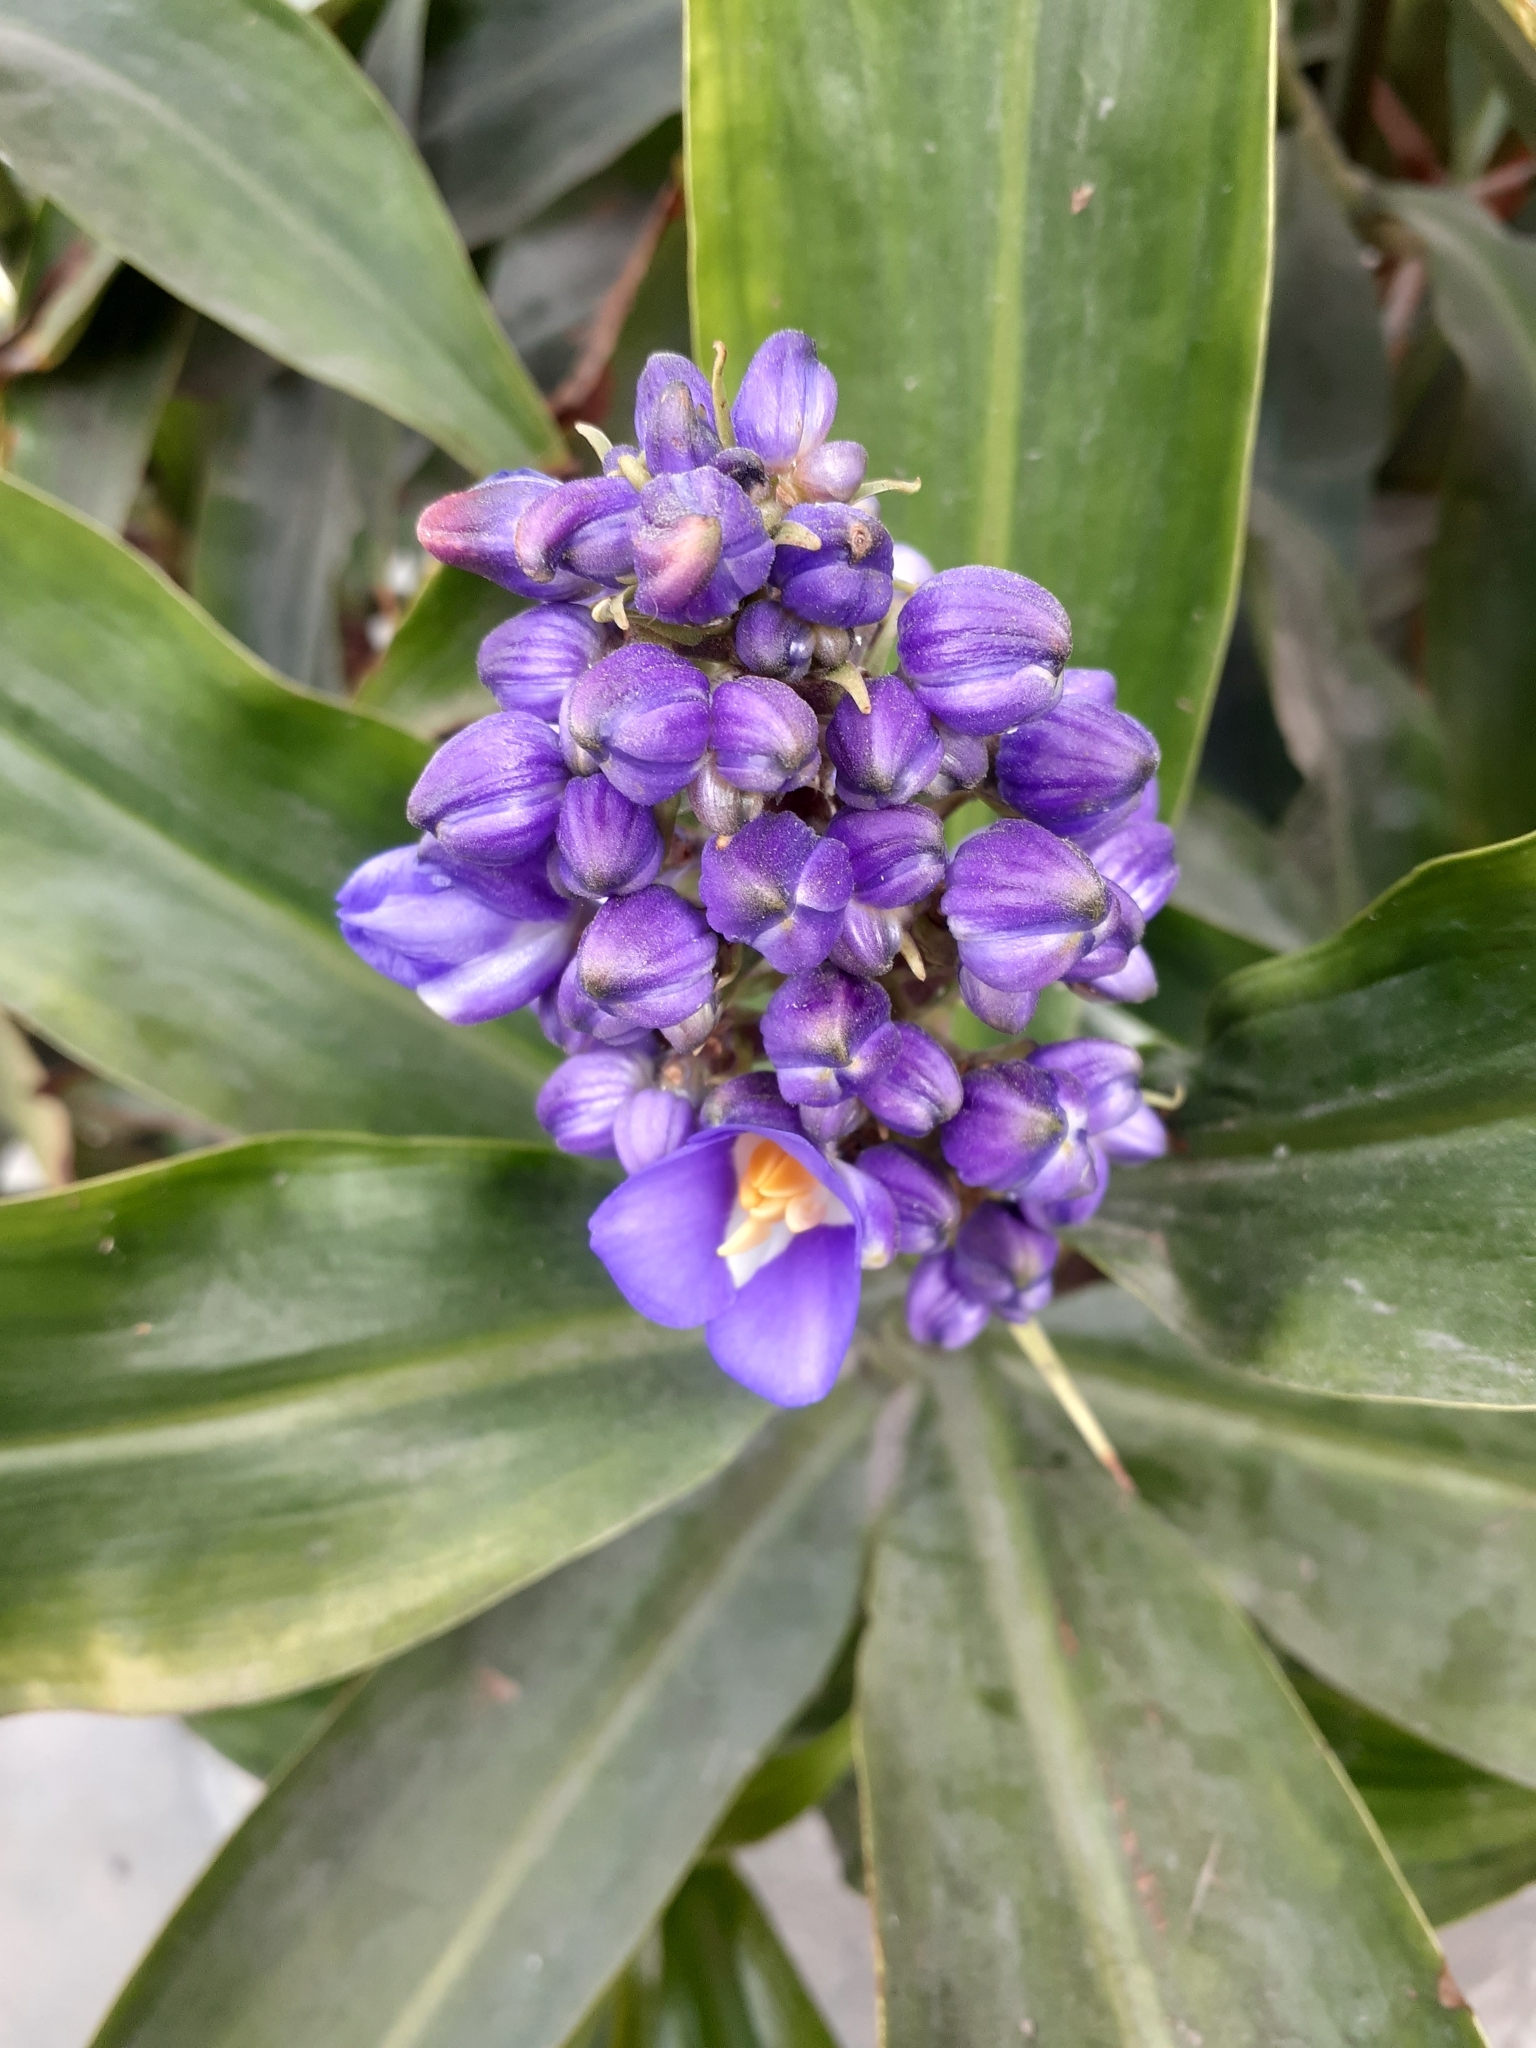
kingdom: Plantae
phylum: Tracheophyta
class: Liliopsida
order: Commelinales
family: Commelinaceae
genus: Dichorisandra
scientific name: Dichorisandra thyrsiflora
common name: Blue-ginger
